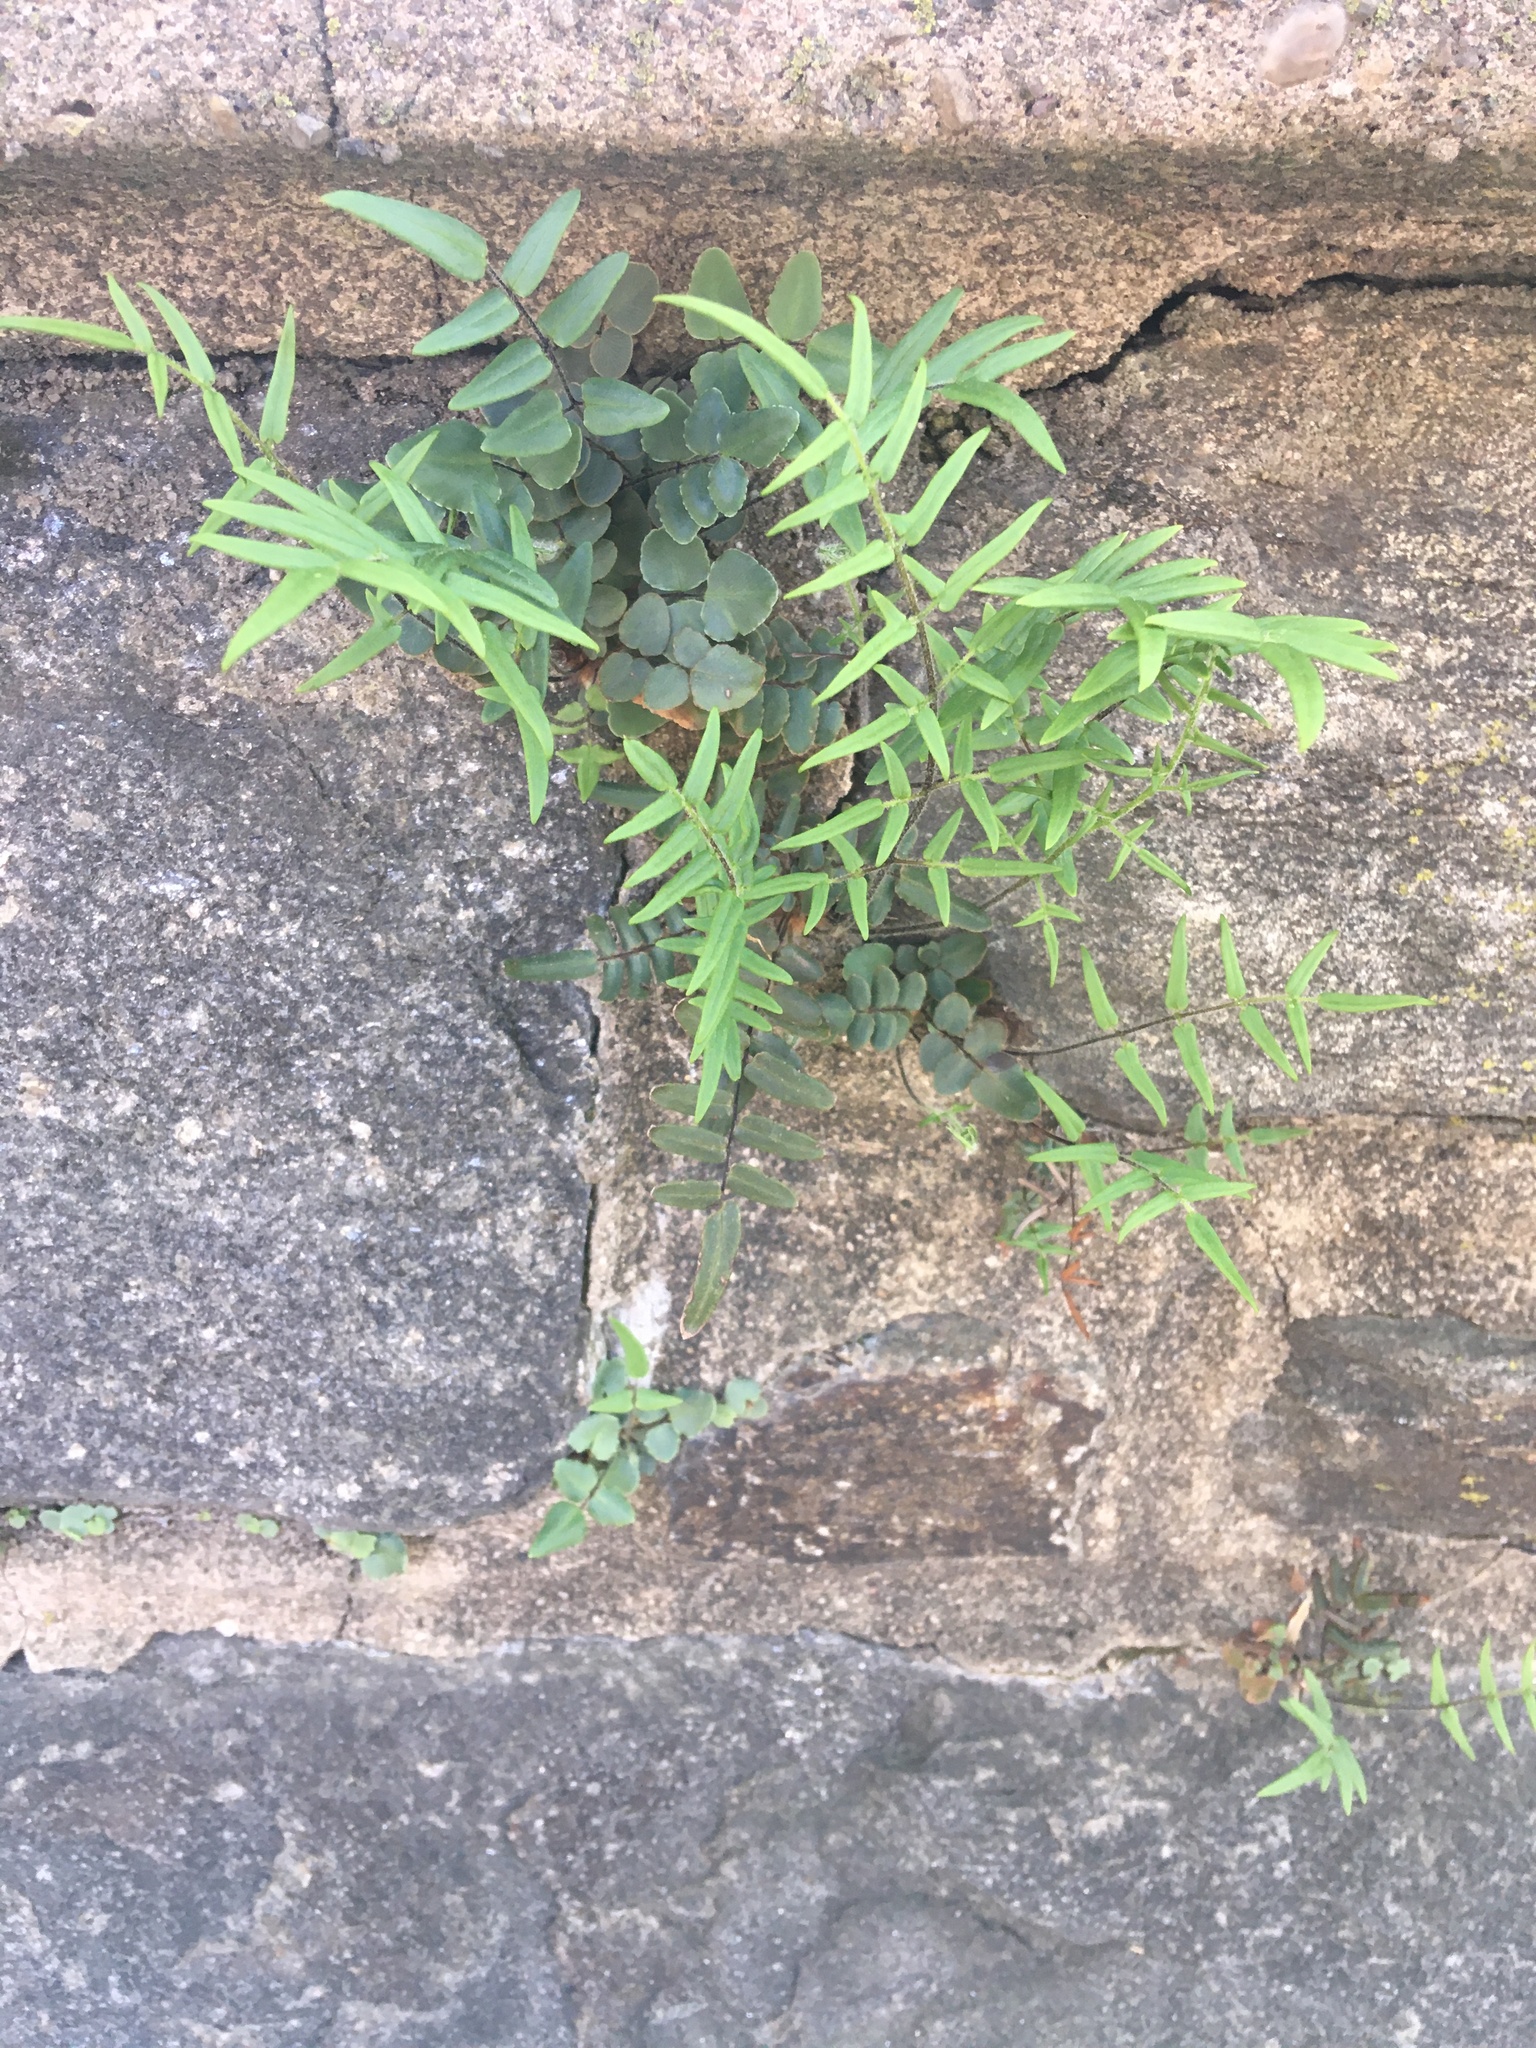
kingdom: Plantae
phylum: Tracheophyta
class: Polypodiopsida
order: Polypodiales
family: Pteridaceae
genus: Pellaea
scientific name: Pellaea atropurpurea
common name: Hairy cliffbrake
